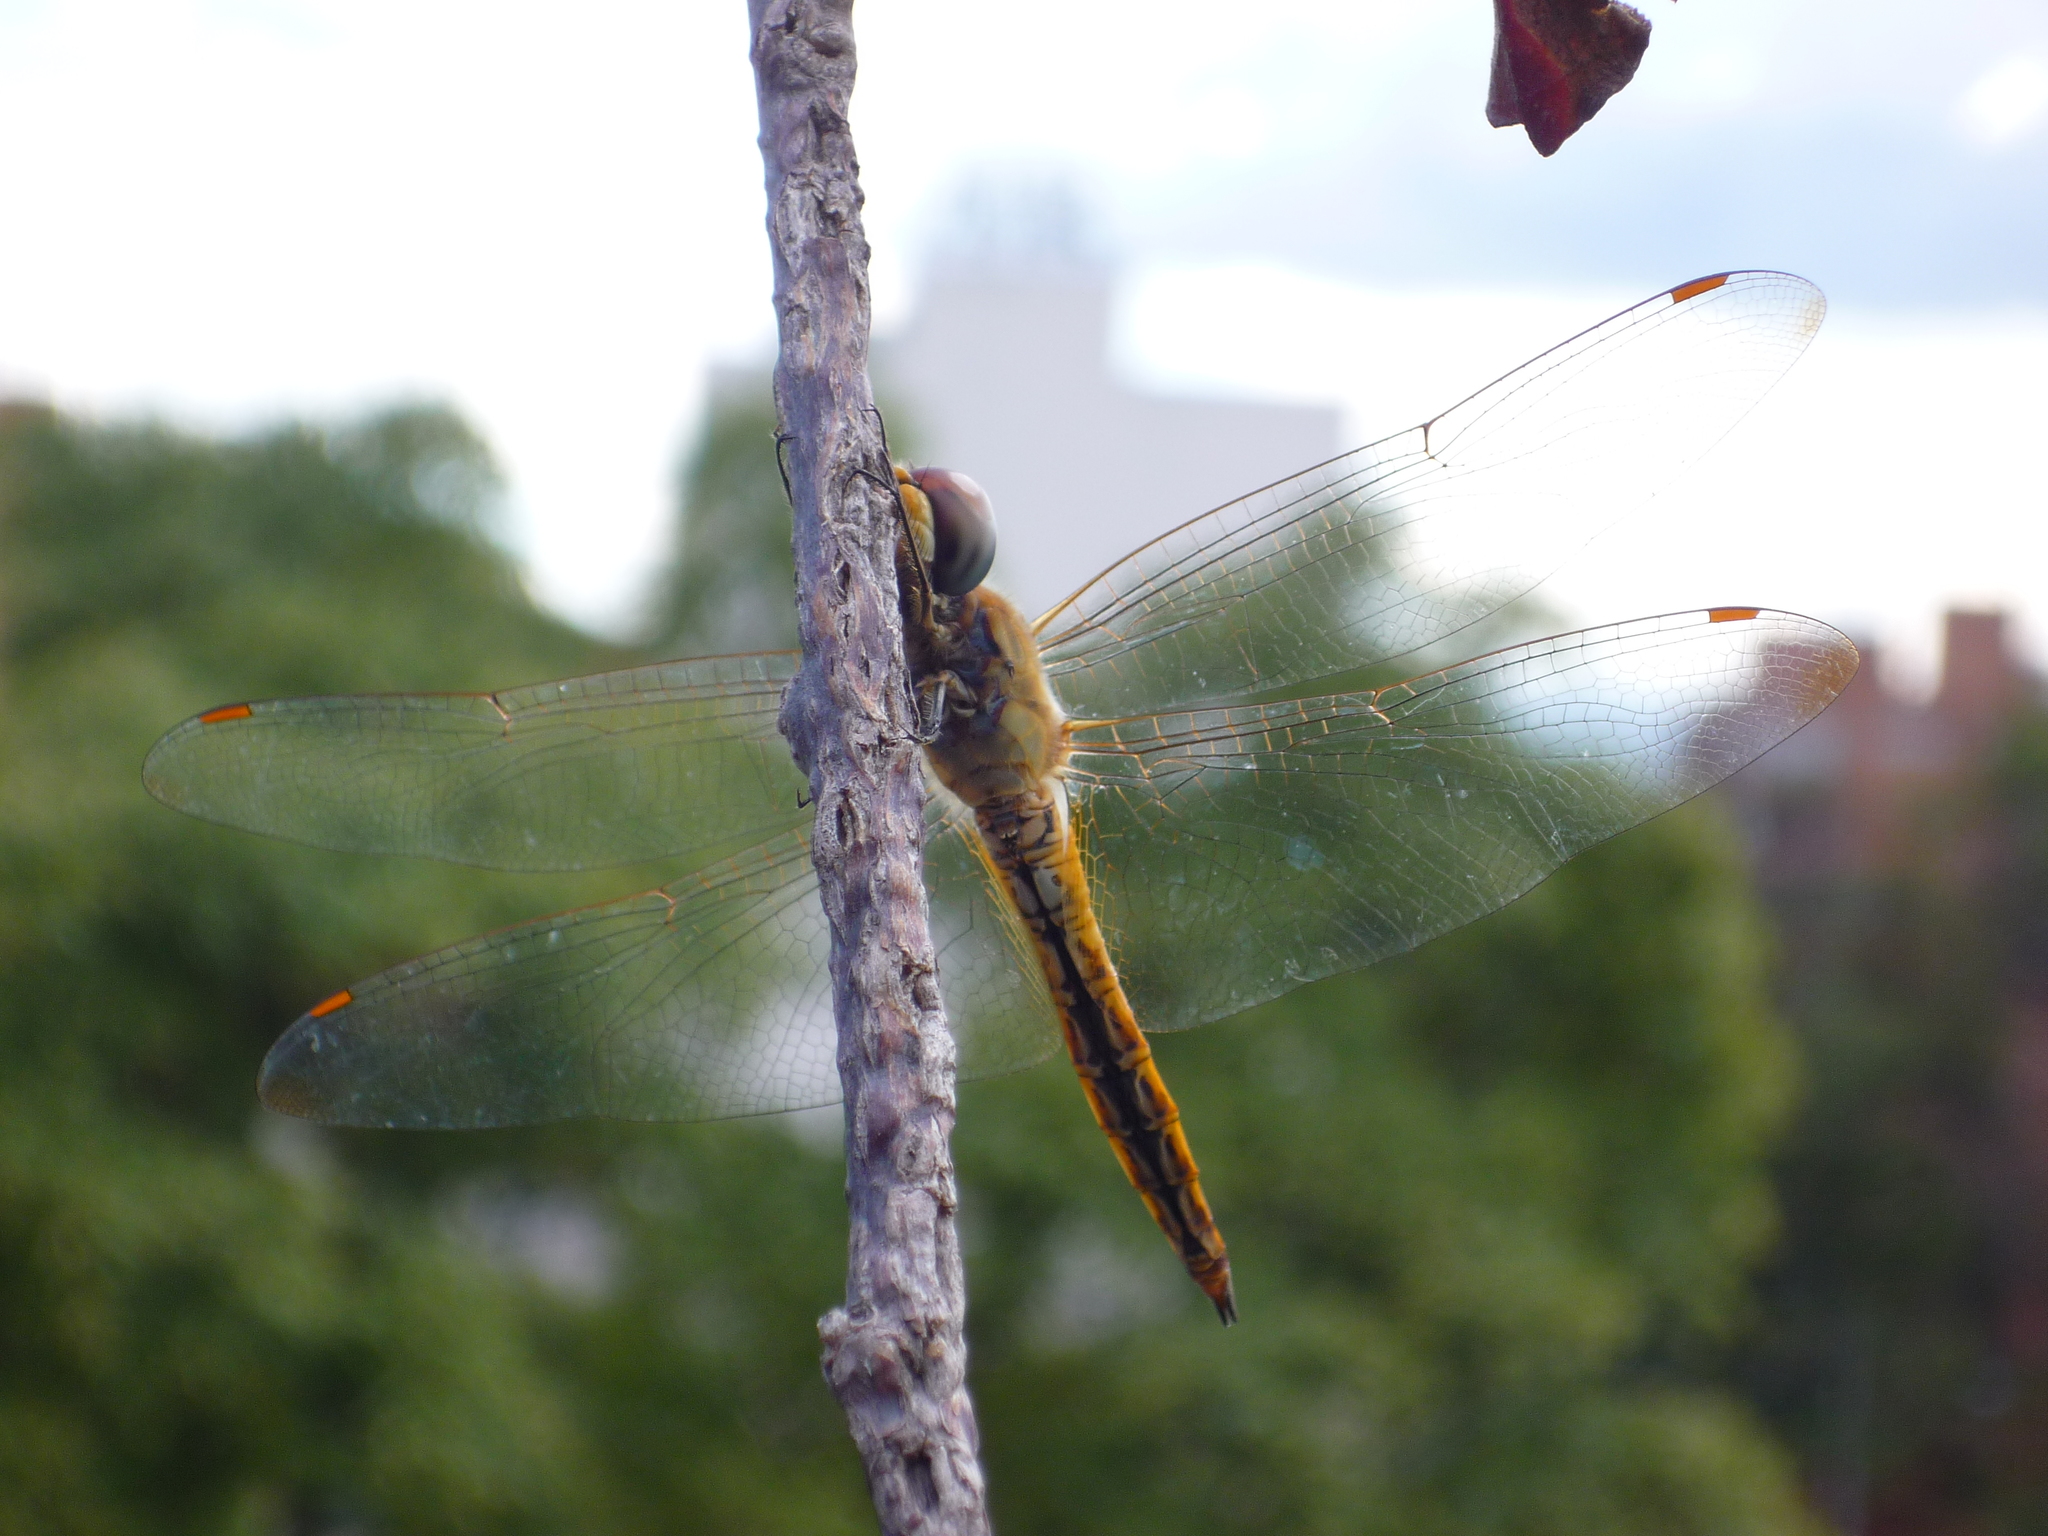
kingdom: Animalia
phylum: Arthropoda
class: Insecta
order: Odonata
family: Libellulidae
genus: Pantala
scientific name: Pantala flavescens
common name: Wandering glider
